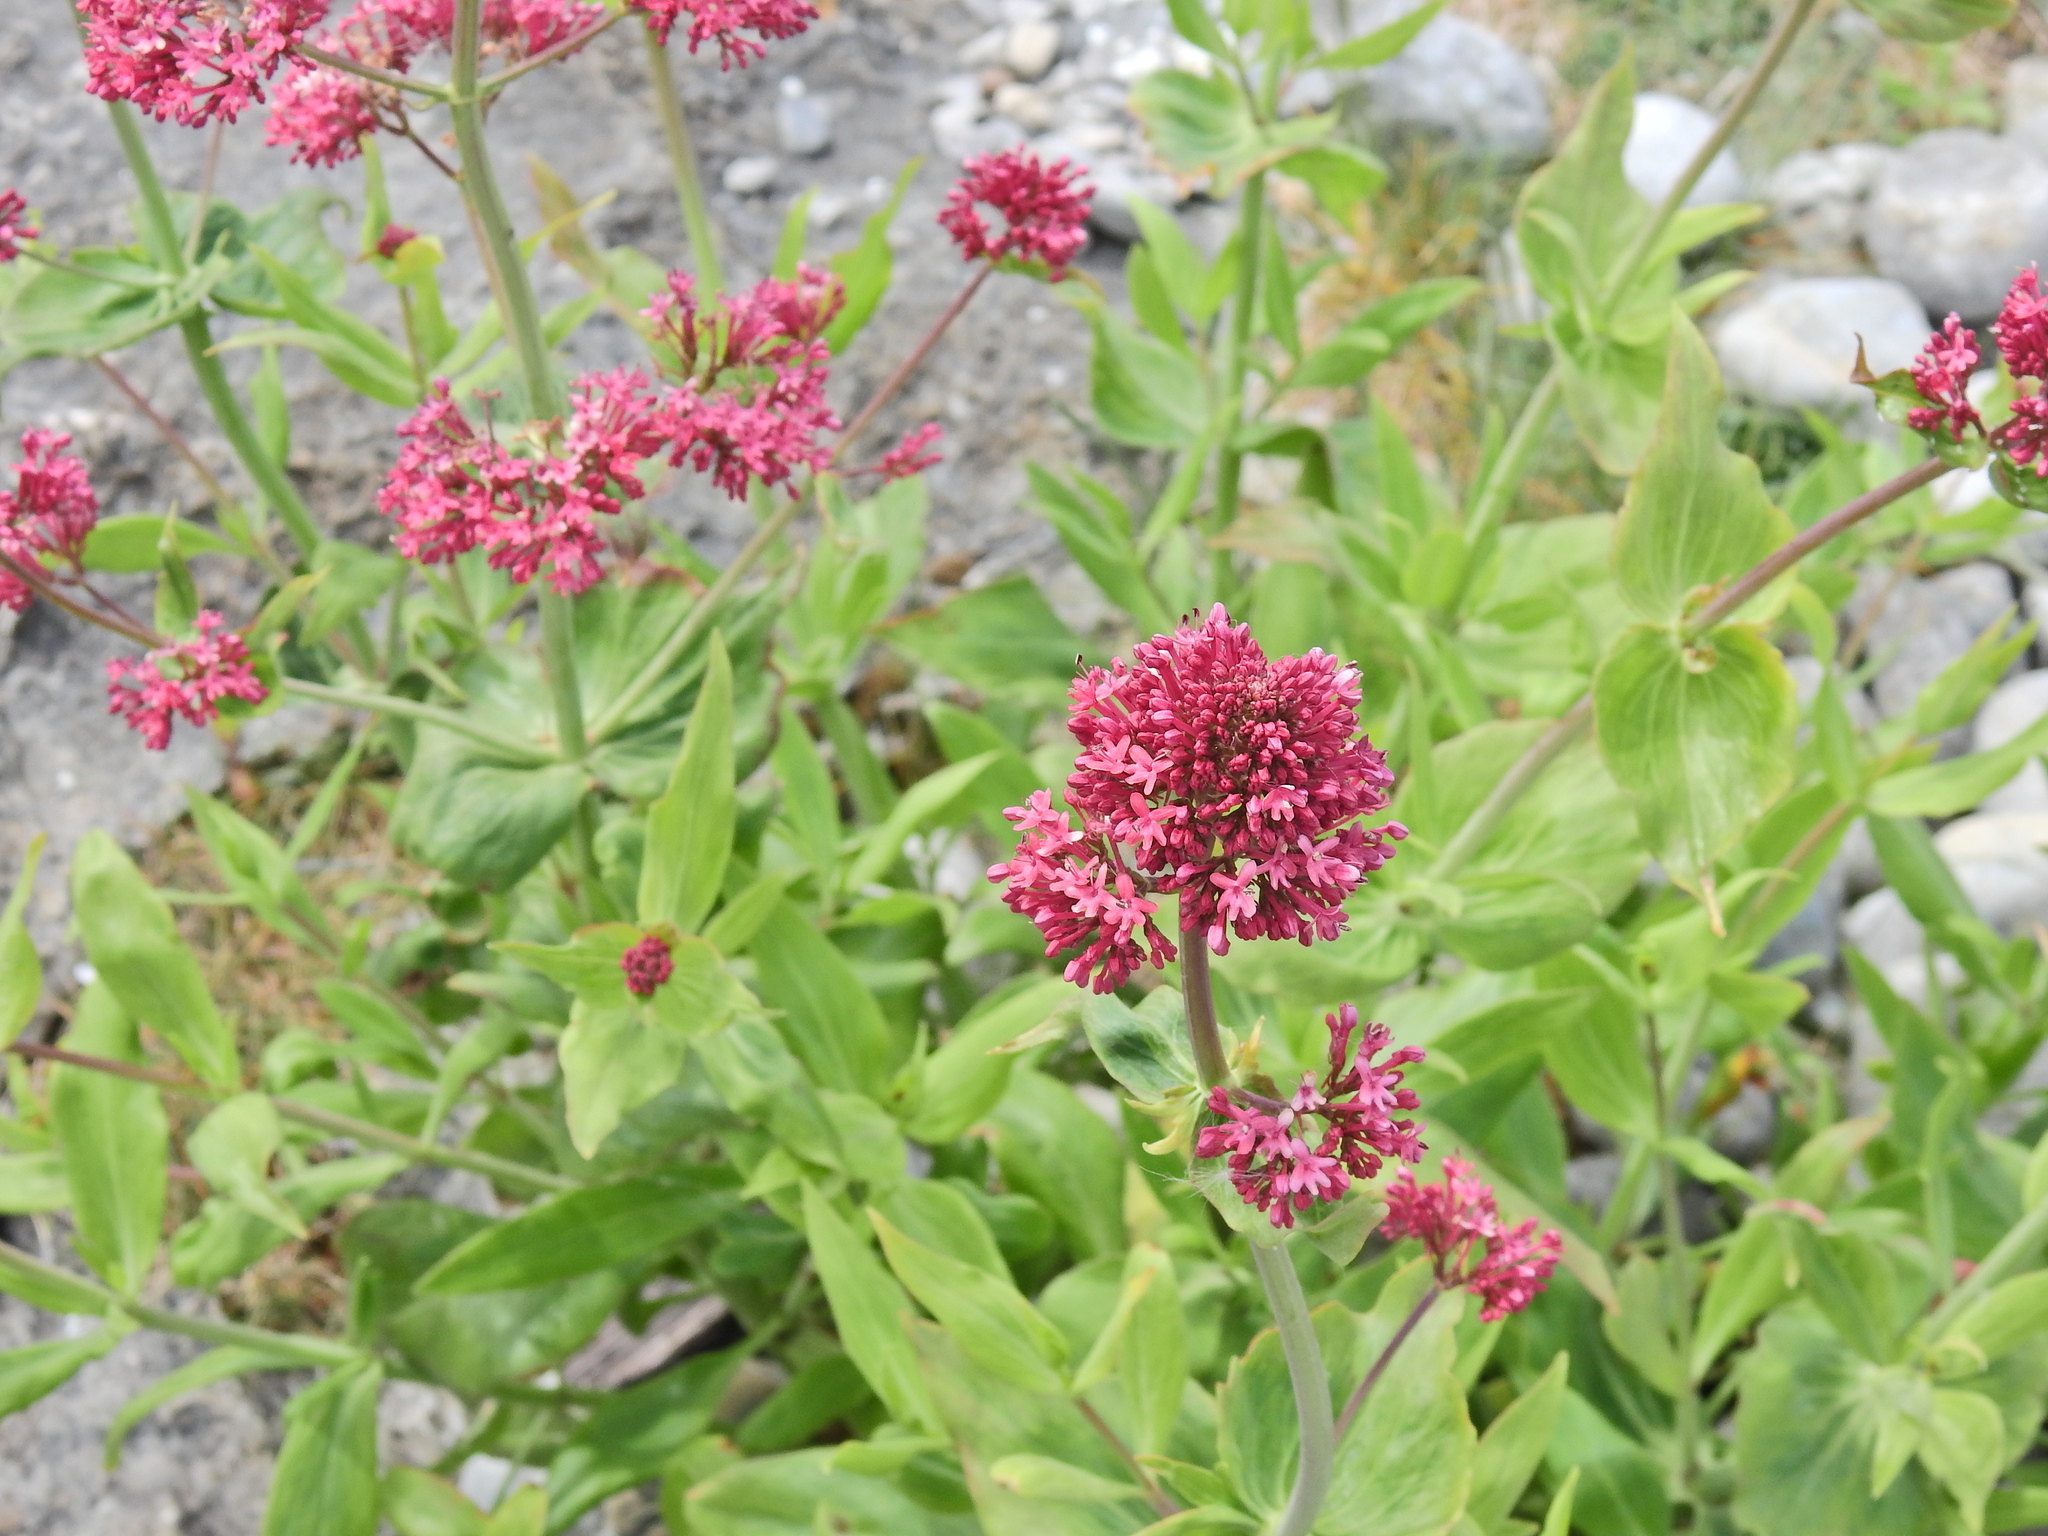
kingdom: Plantae
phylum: Tracheophyta
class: Magnoliopsida
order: Dipsacales
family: Caprifoliaceae
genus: Centranthus
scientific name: Centranthus ruber
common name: Red valerian
